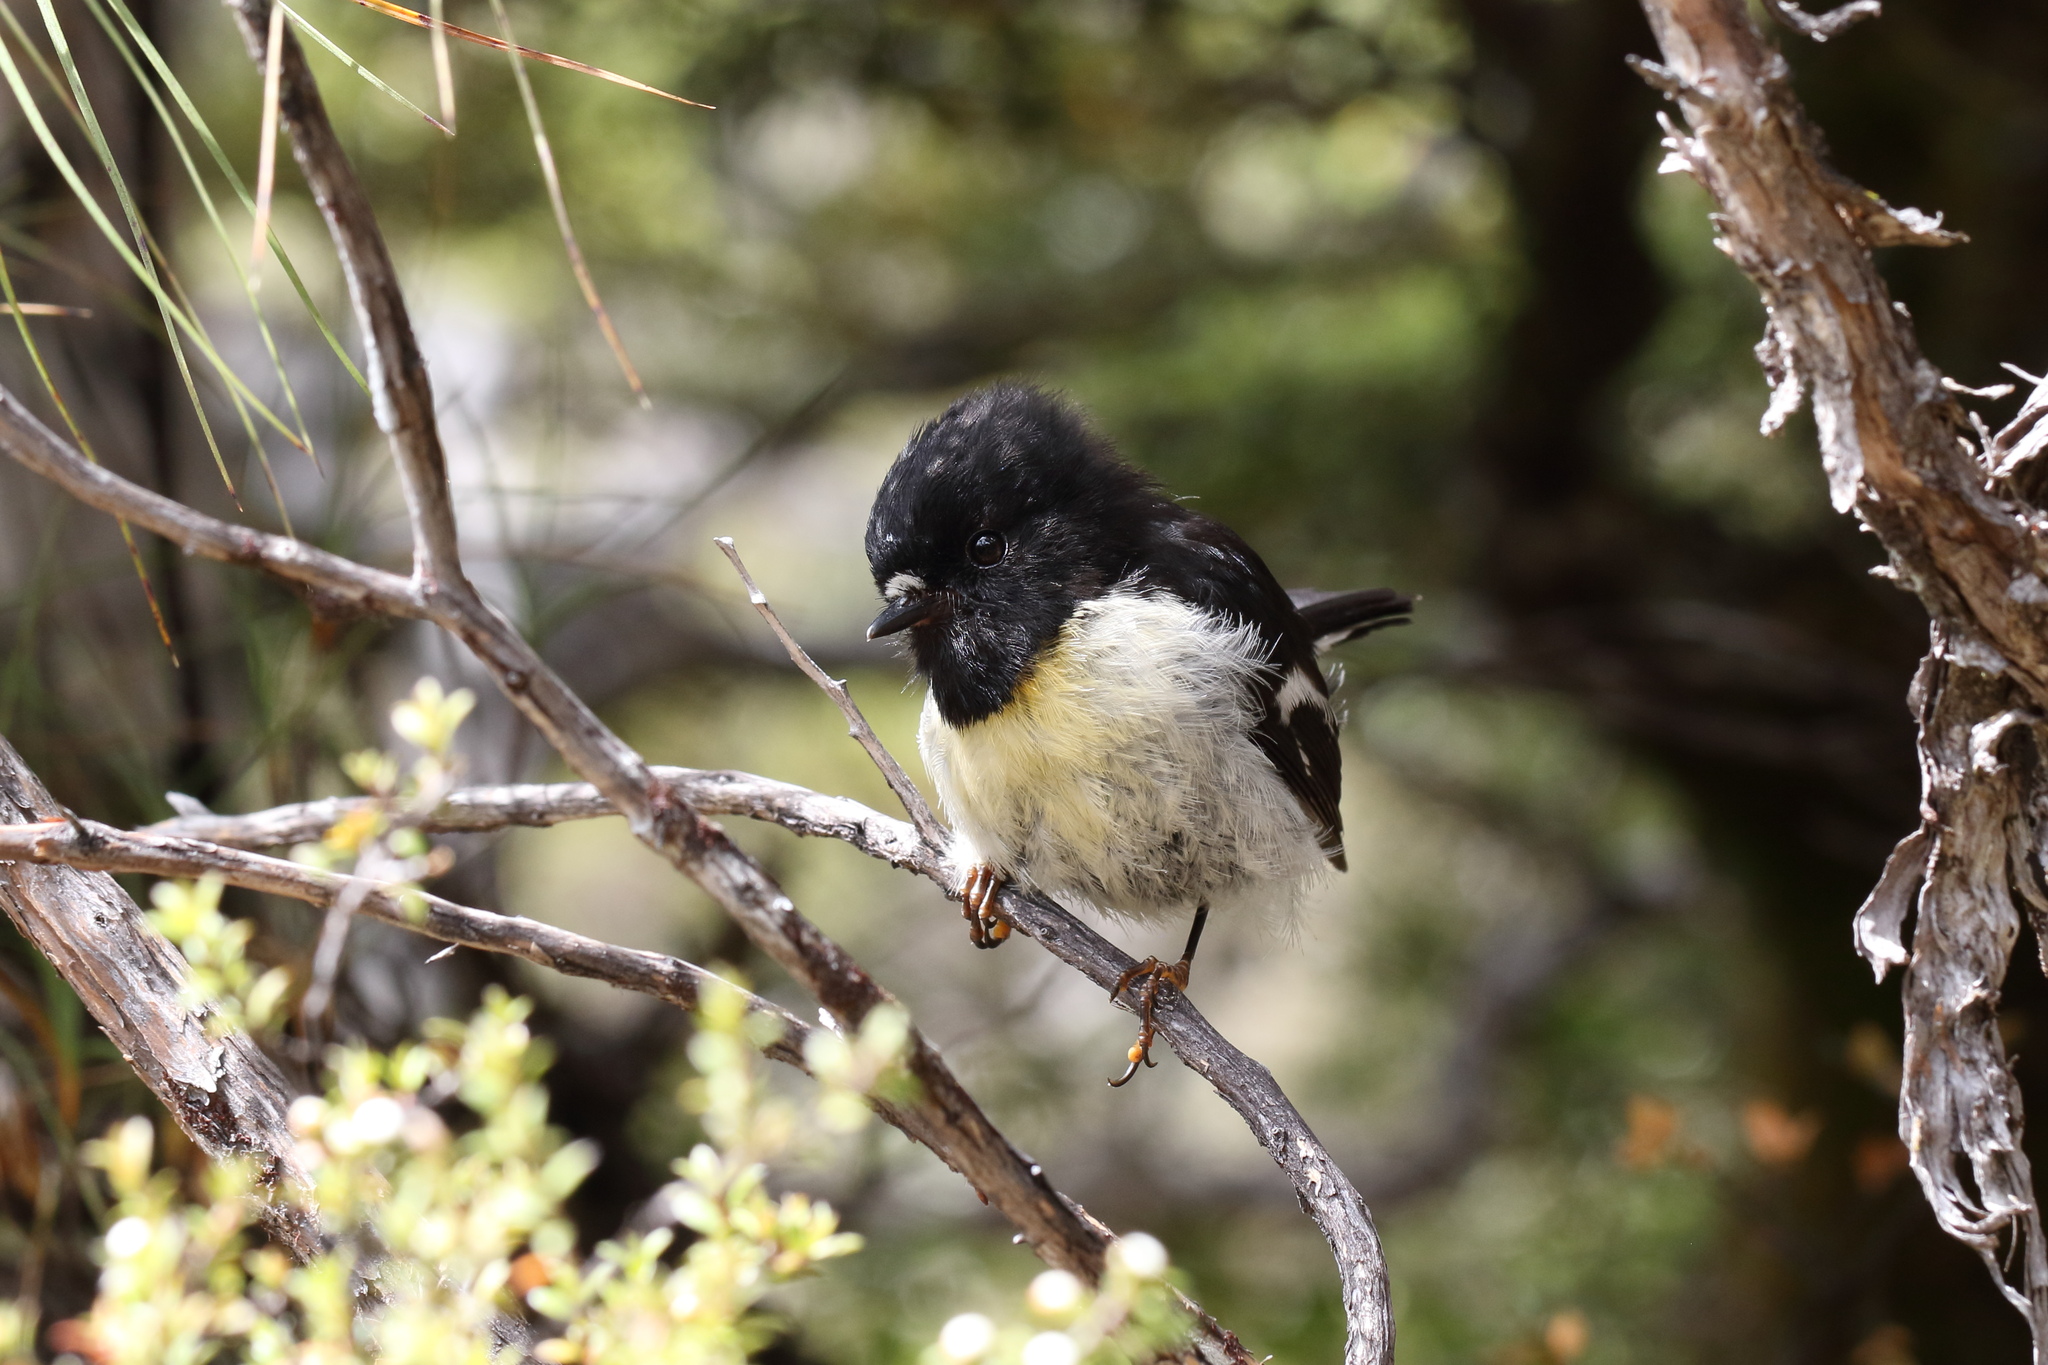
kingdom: Animalia
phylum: Chordata
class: Aves
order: Passeriformes
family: Petroicidae
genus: Petroica
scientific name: Petroica macrocephala
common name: Tomtit
